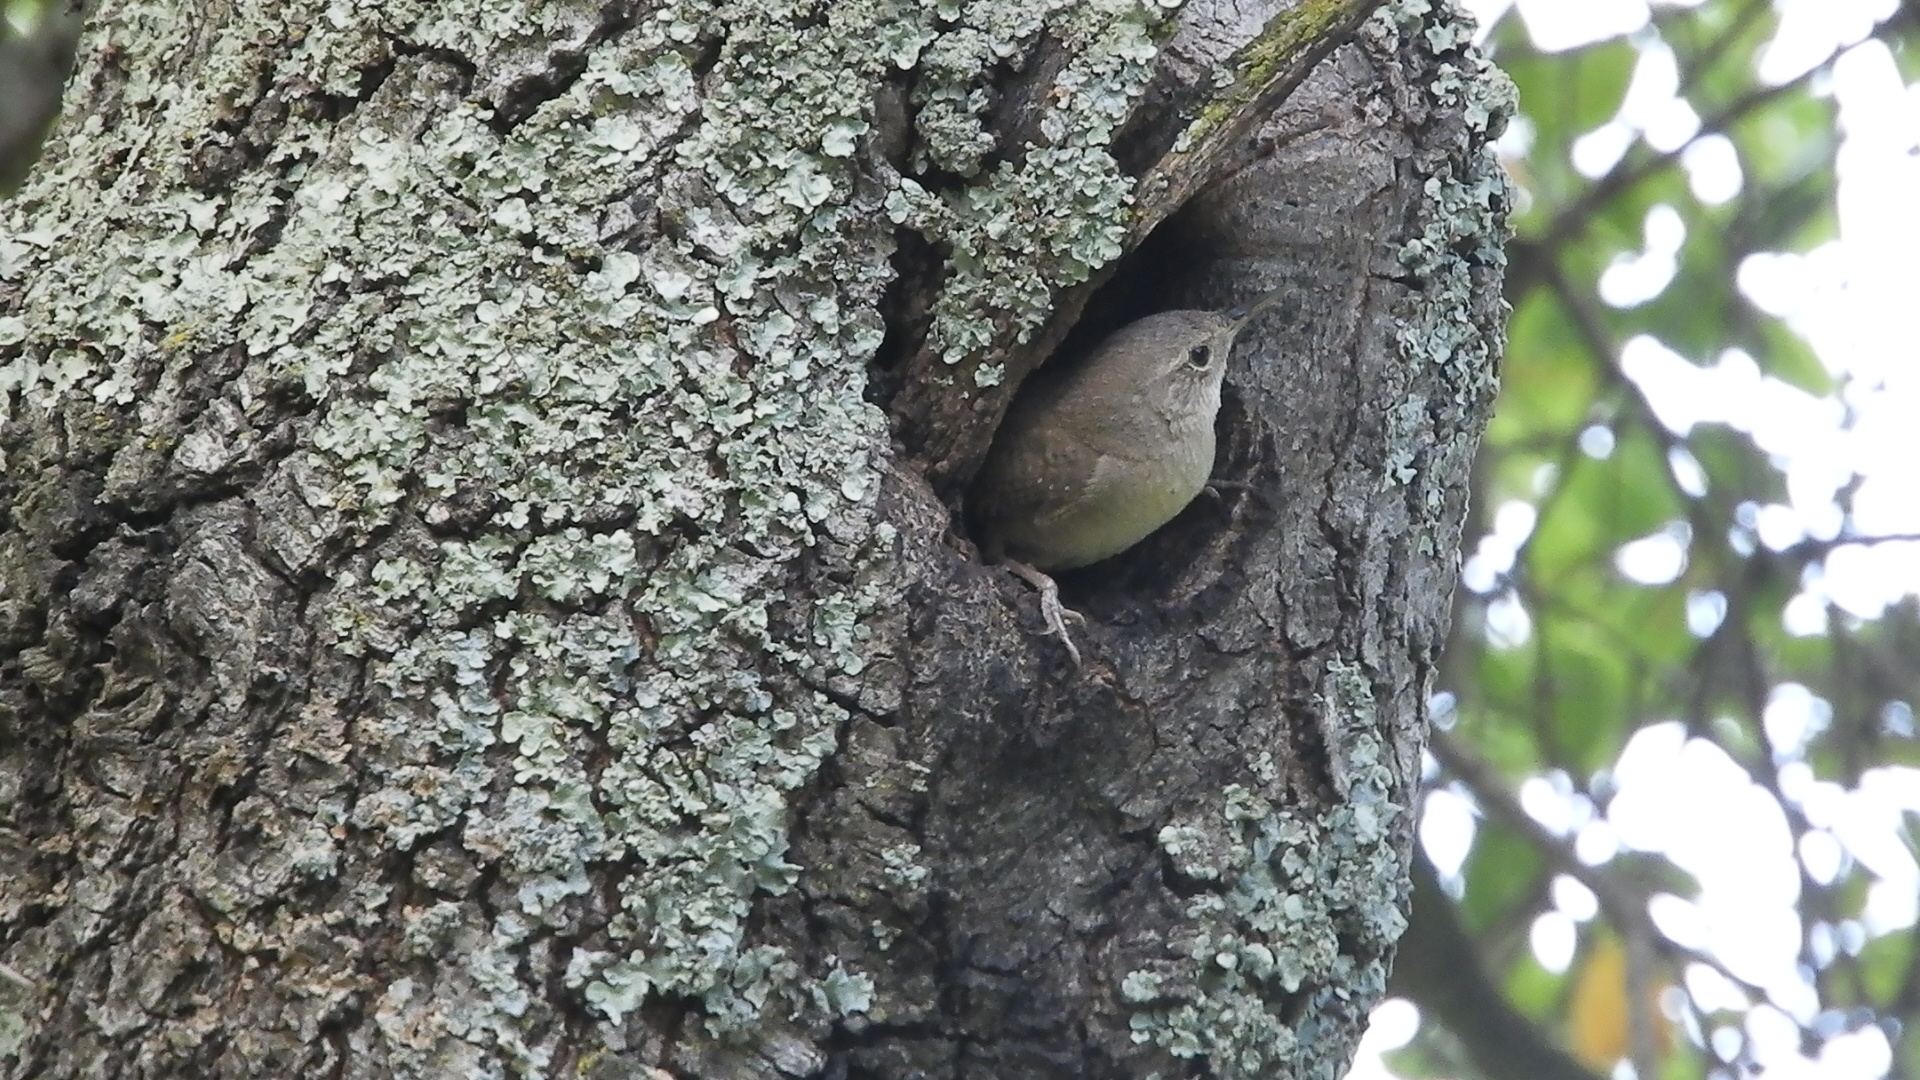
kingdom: Animalia
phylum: Chordata
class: Aves
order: Passeriformes
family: Troglodytidae
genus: Troglodytes
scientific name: Troglodytes aedon
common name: House wren
